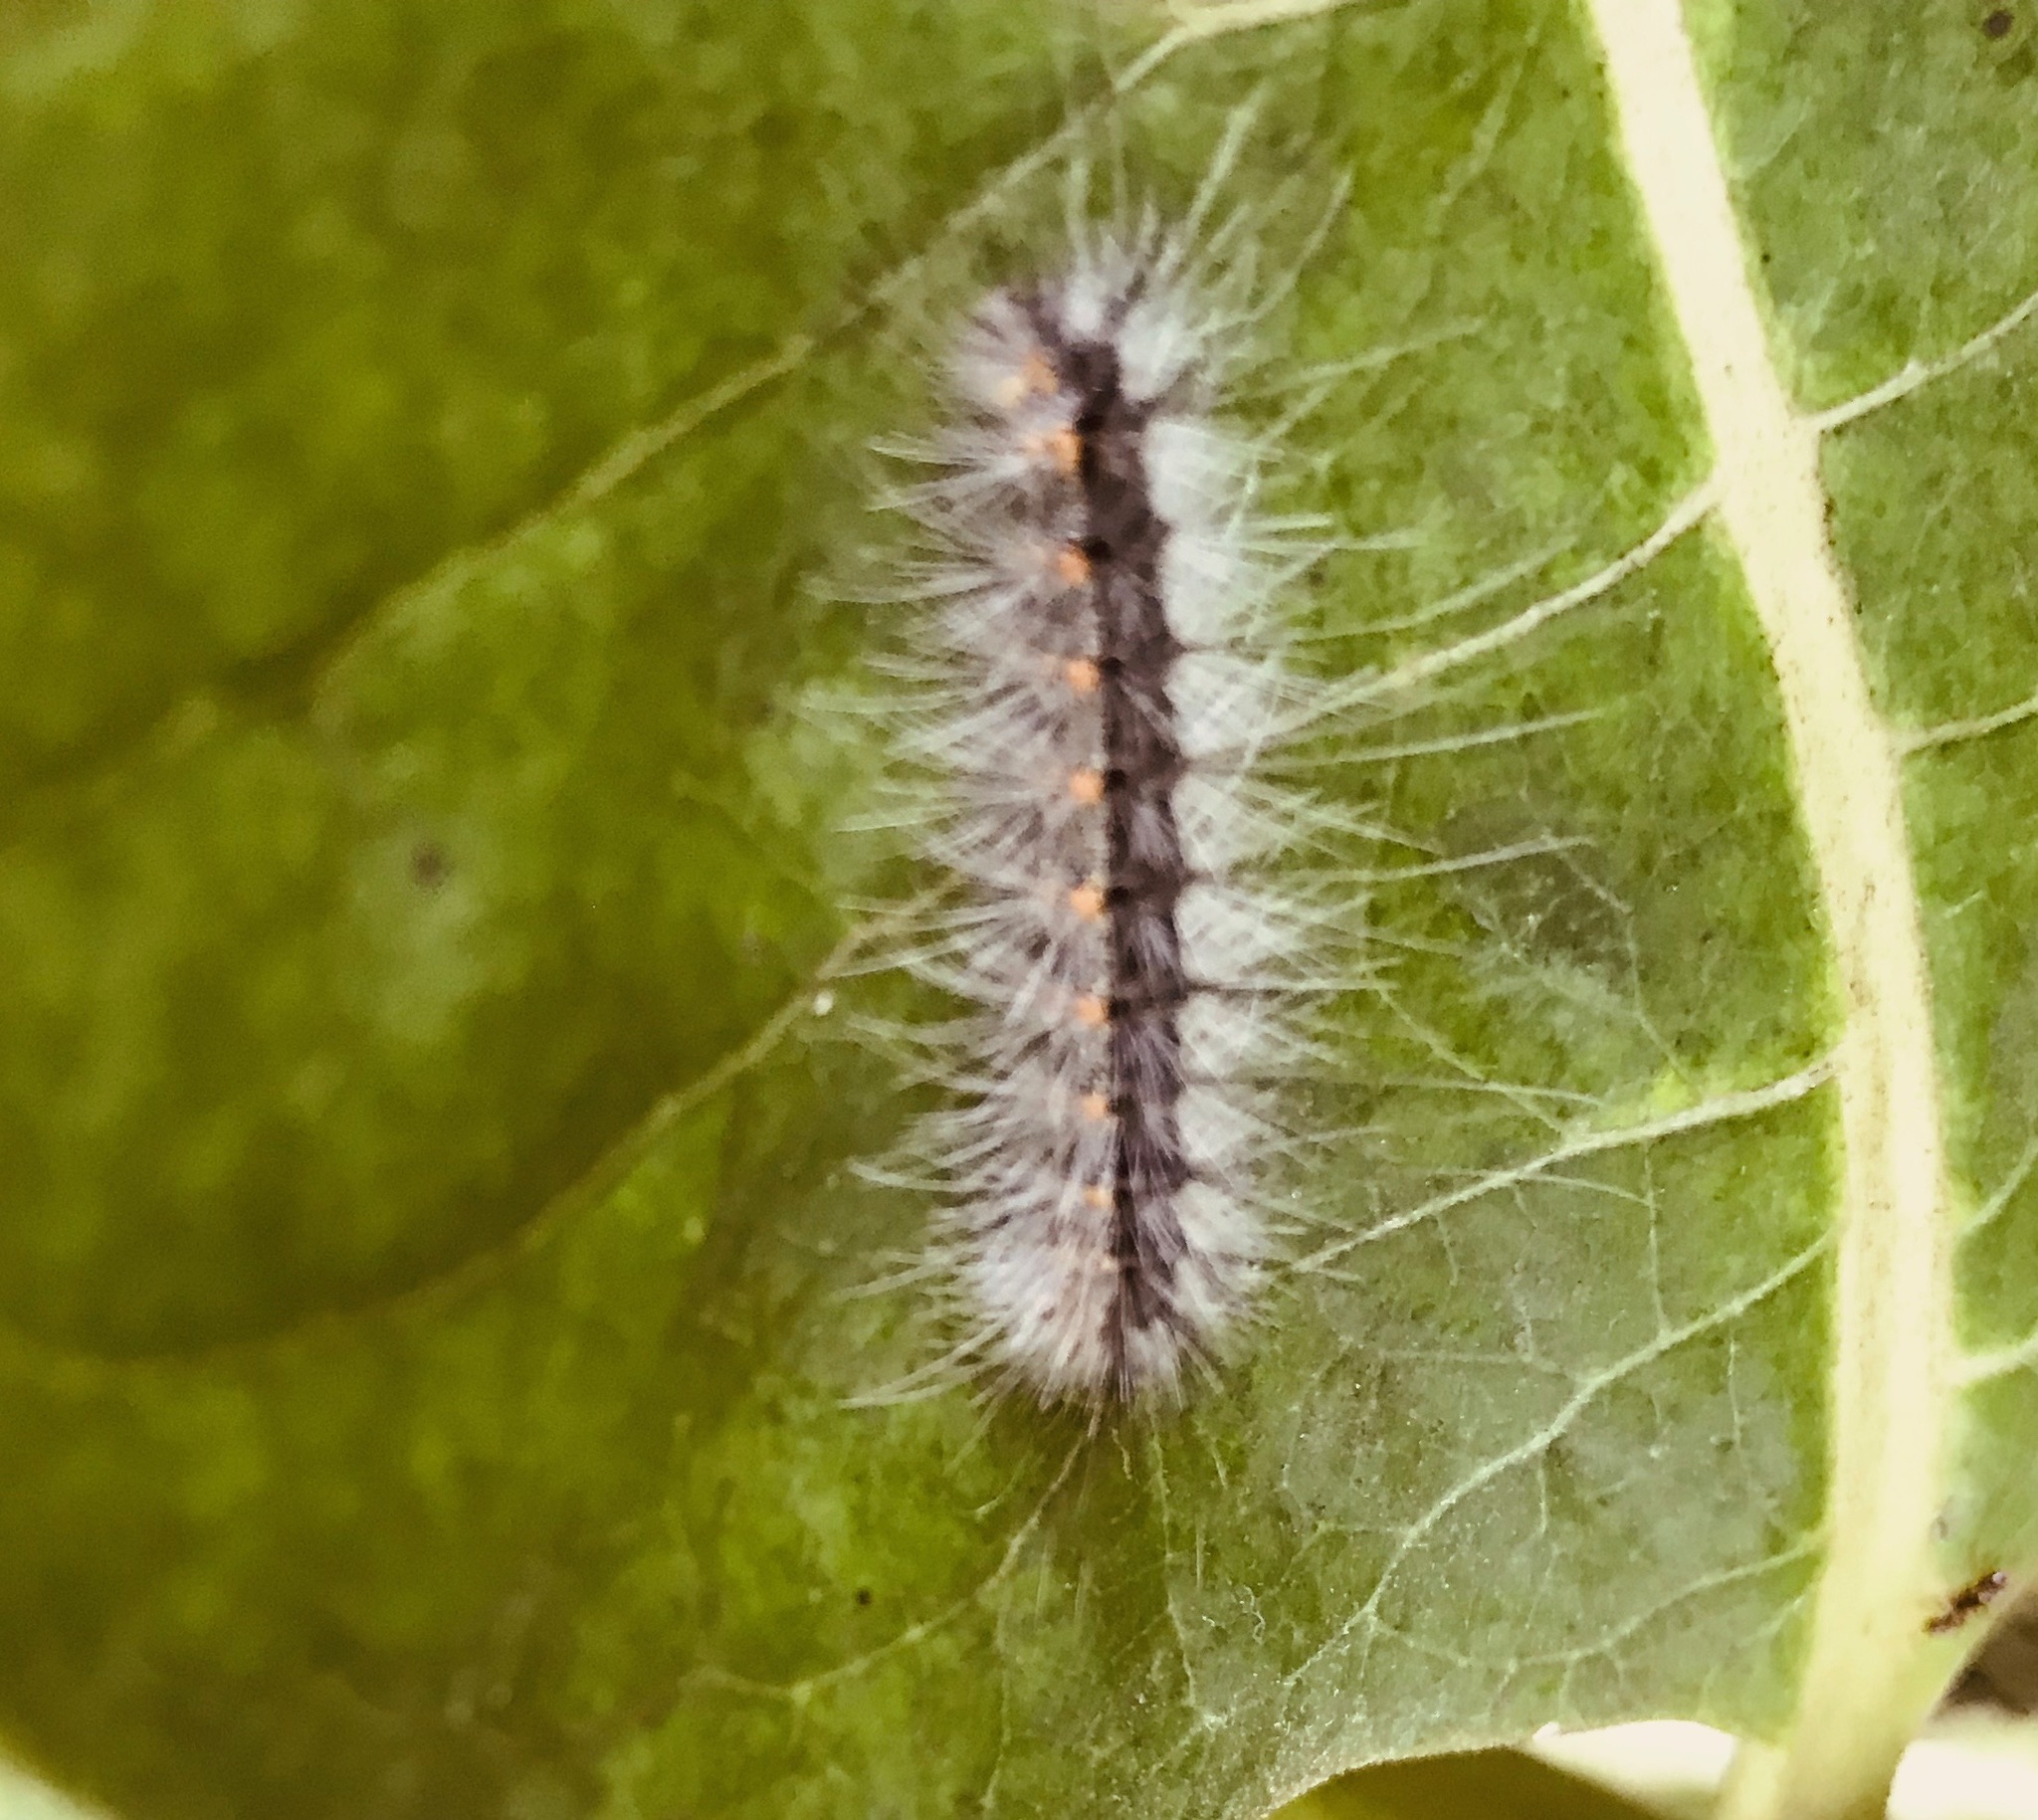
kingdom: Animalia
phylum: Arthropoda
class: Insecta
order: Lepidoptera
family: Erebidae
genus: Hyphantria
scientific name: Hyphantria cunea
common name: American white moth
